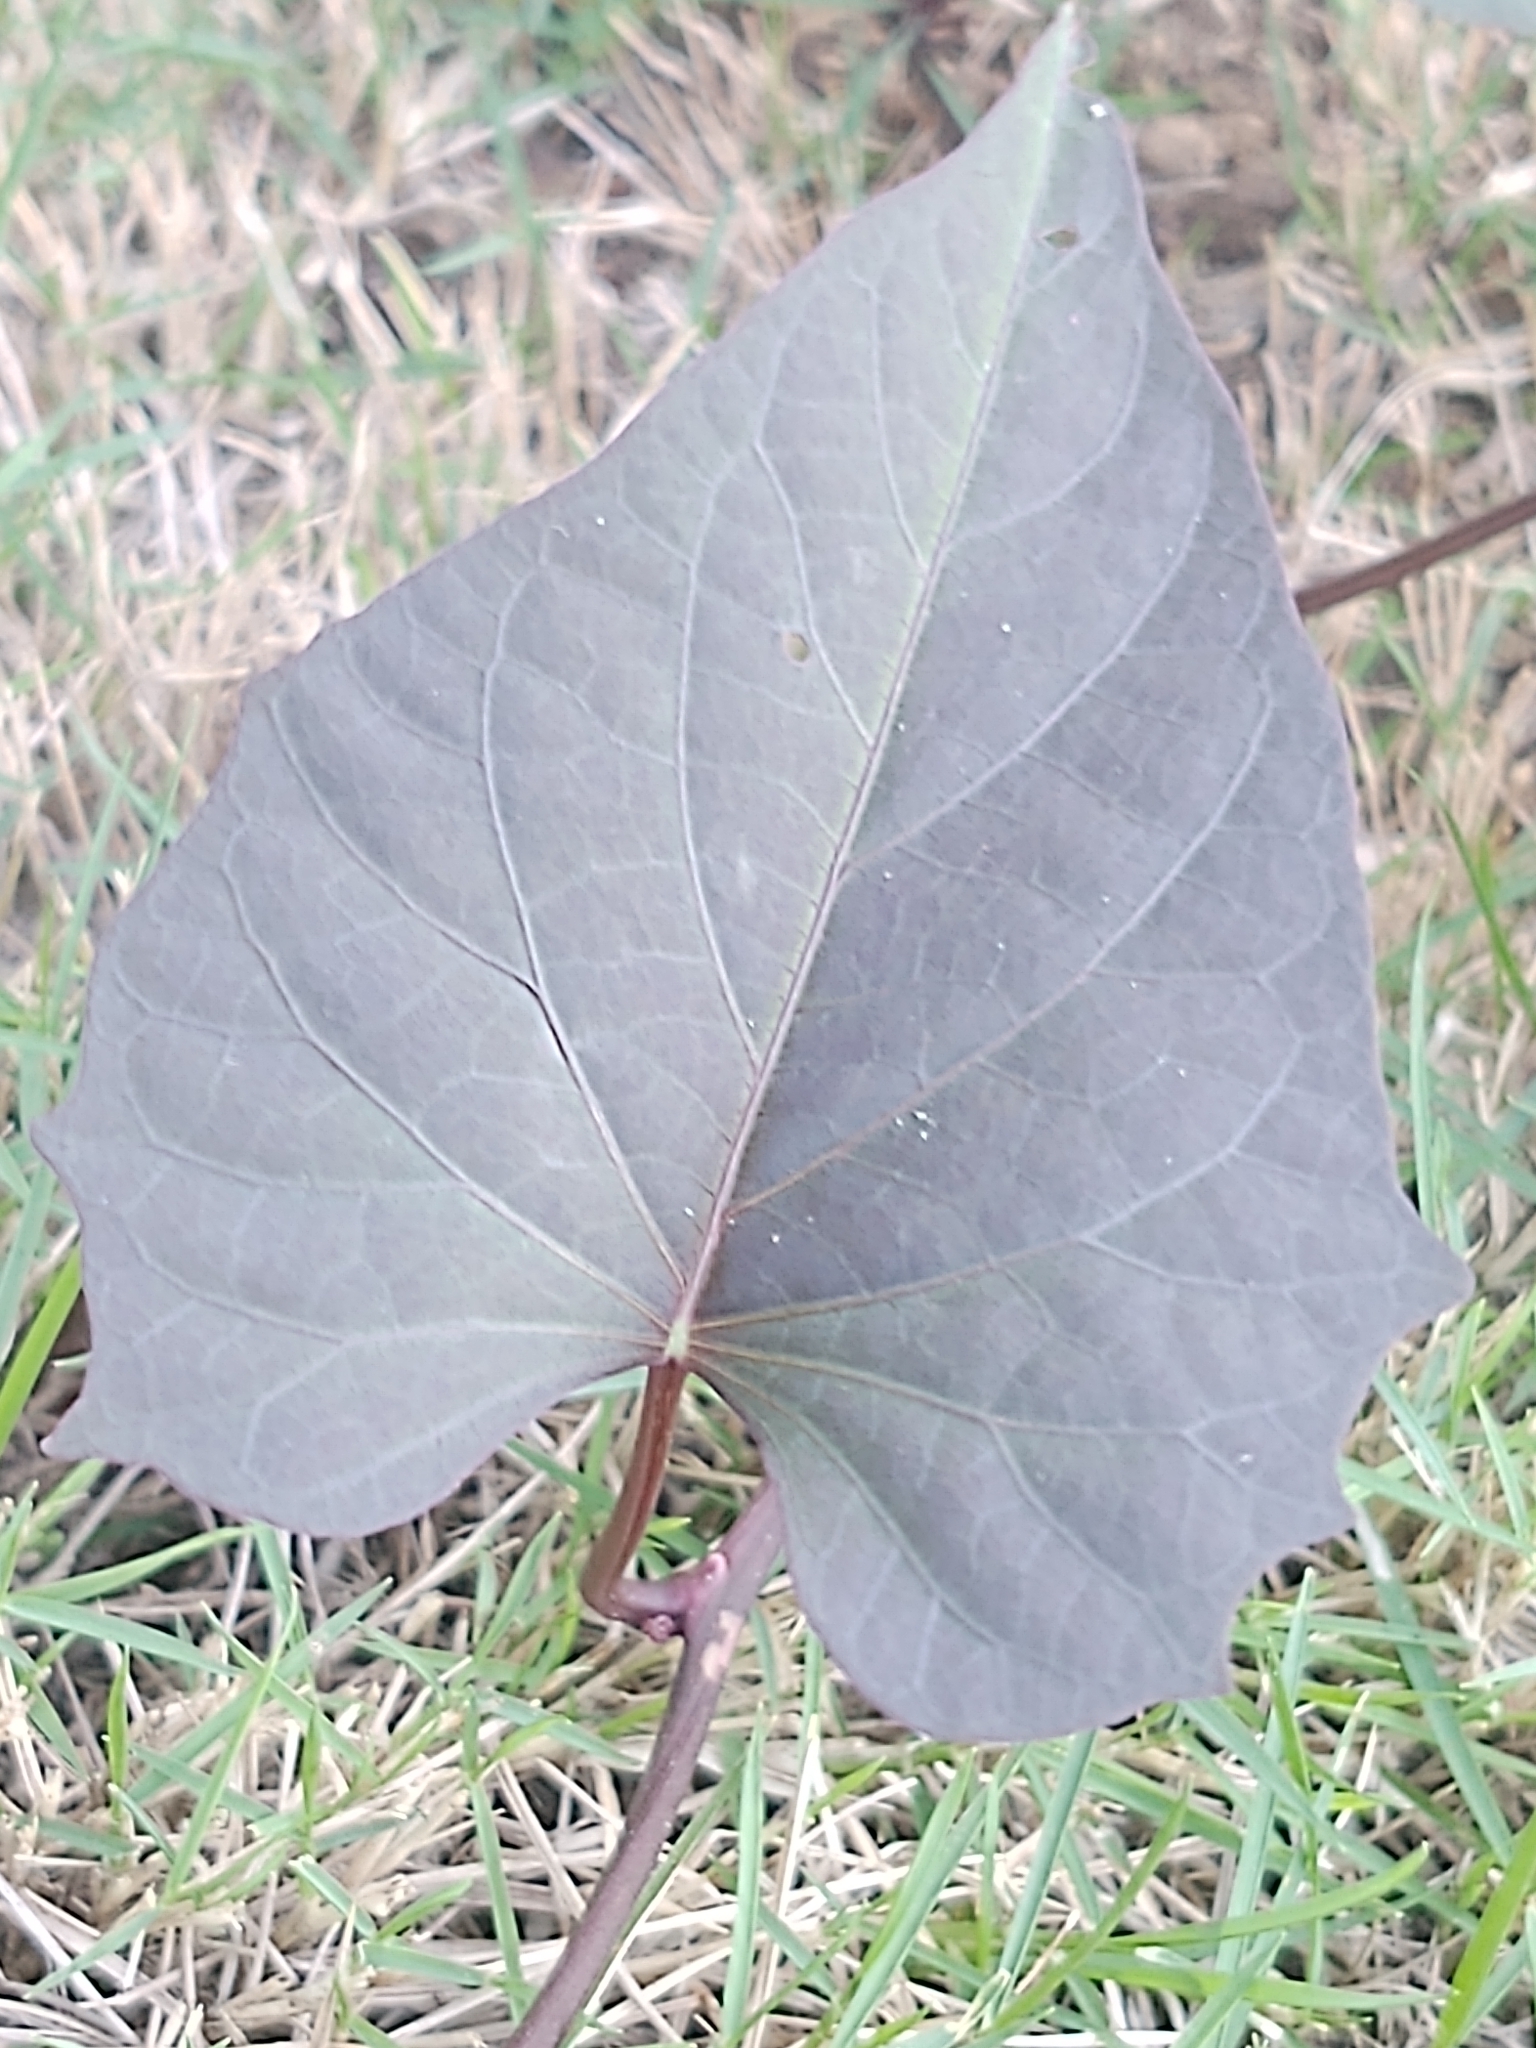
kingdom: Plantae
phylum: Tracheophyta
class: Magnoliopsida
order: Solanales
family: Convolvulaceae
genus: Ipomoea
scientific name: Ipomoea batatas
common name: Sweet-potato
